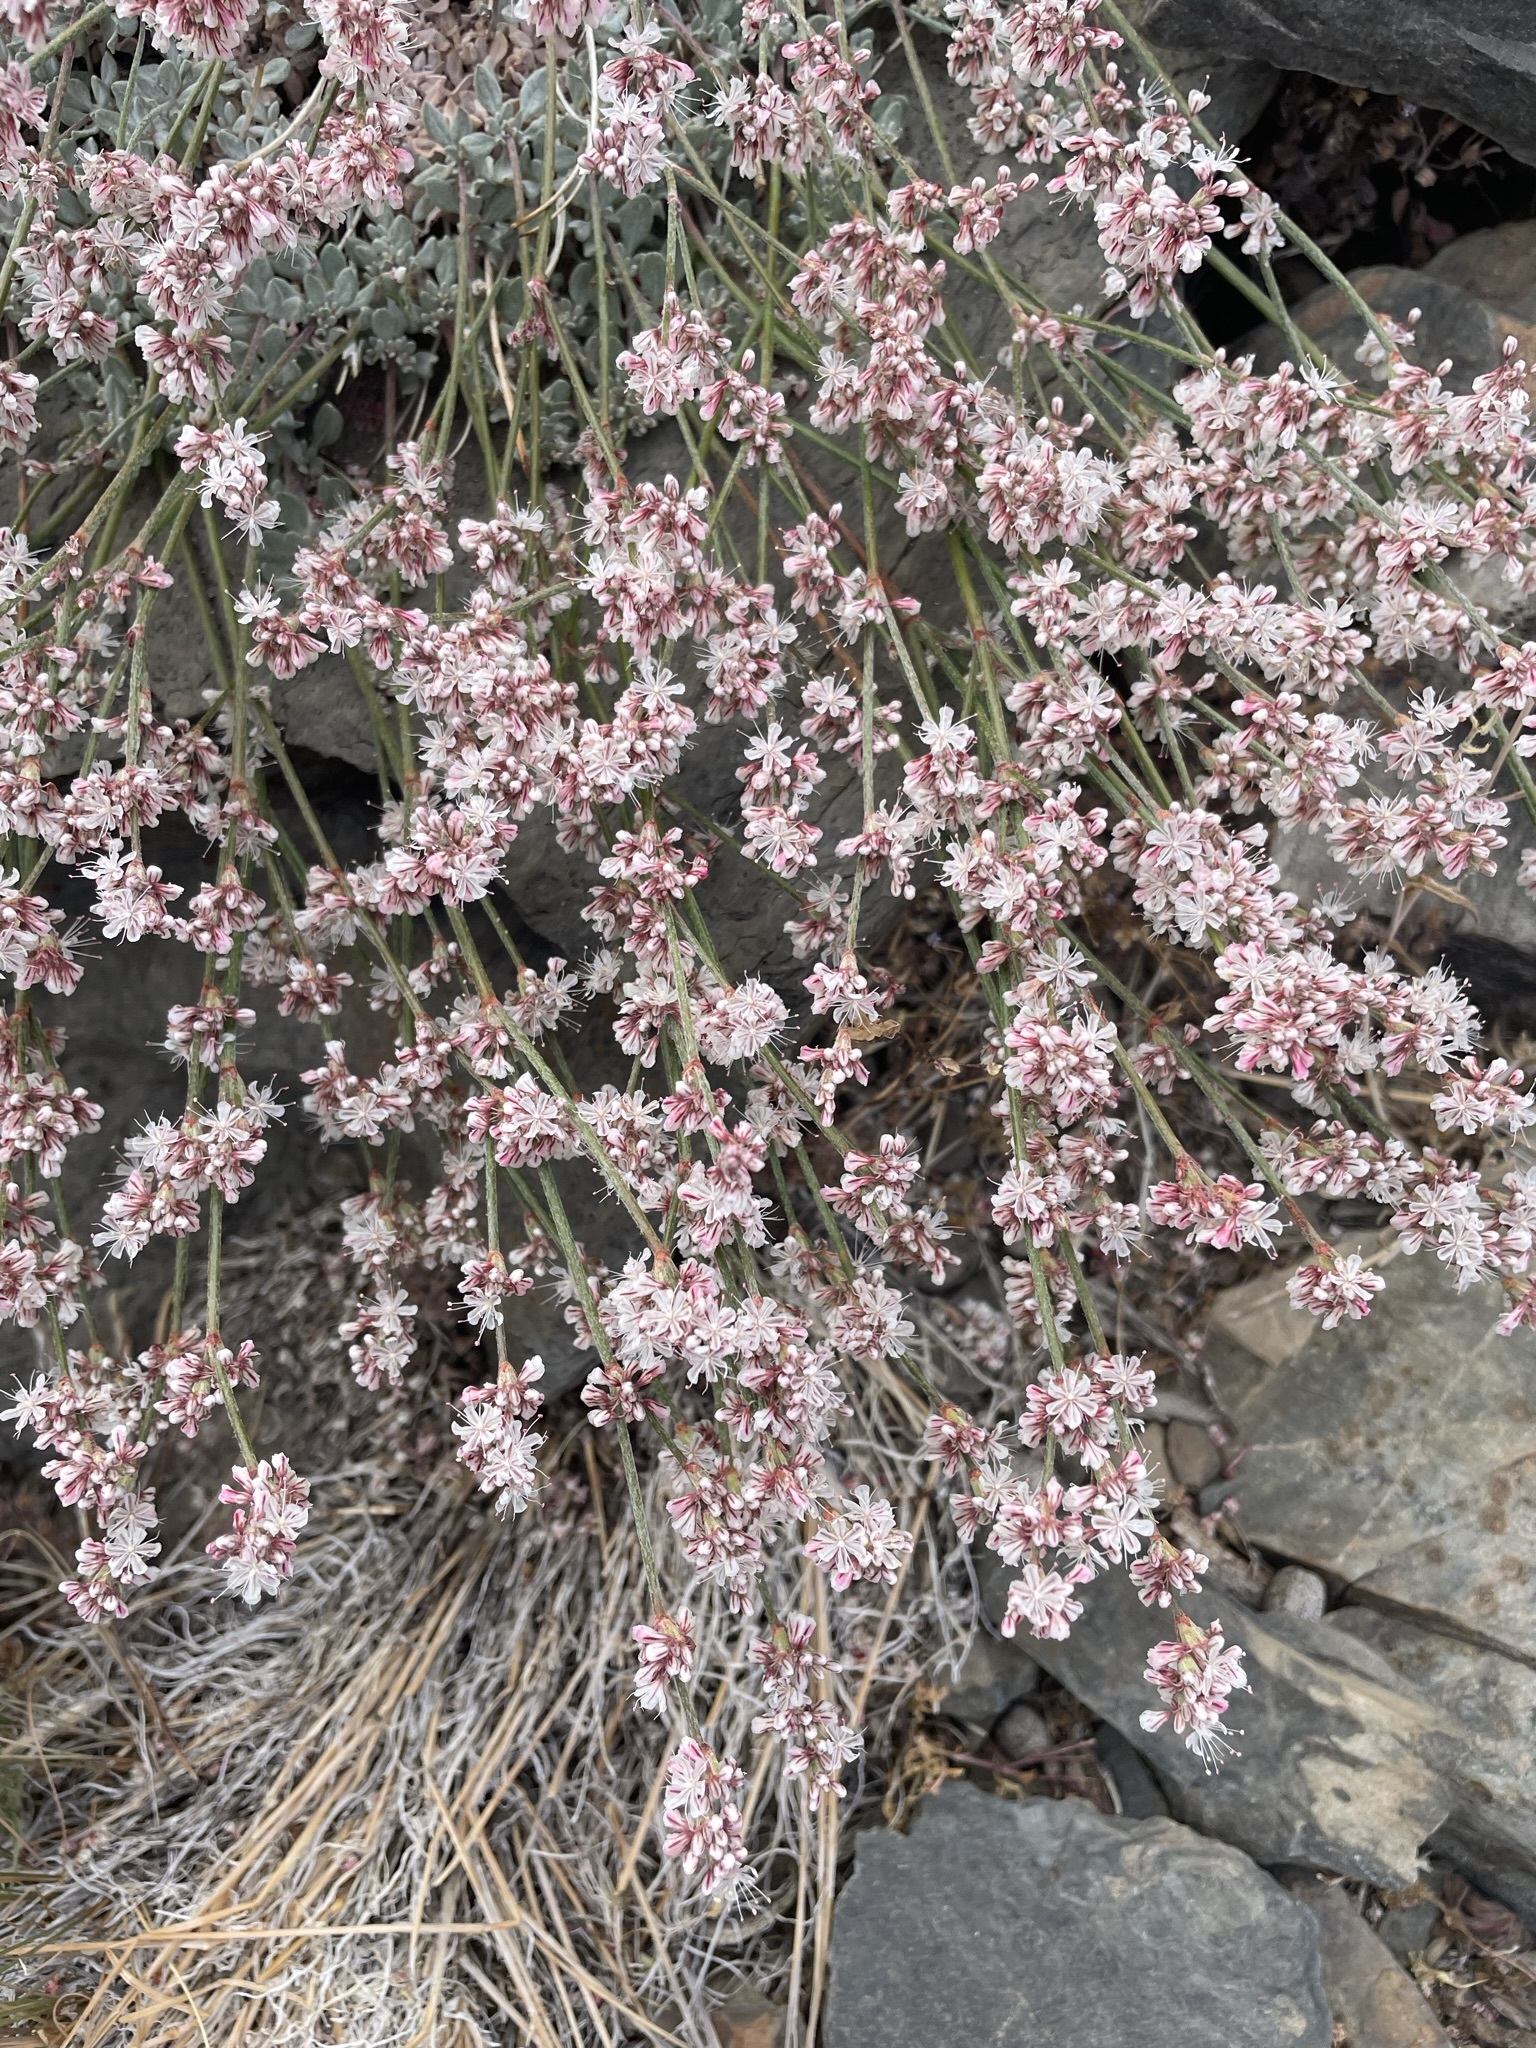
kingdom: Plantae
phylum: Tracheophyta
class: Magnoliopsida
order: Caryophyllales
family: Polygonaceae
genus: Eriogonum
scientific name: Eriogonum wrightii
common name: Bastard-sage
